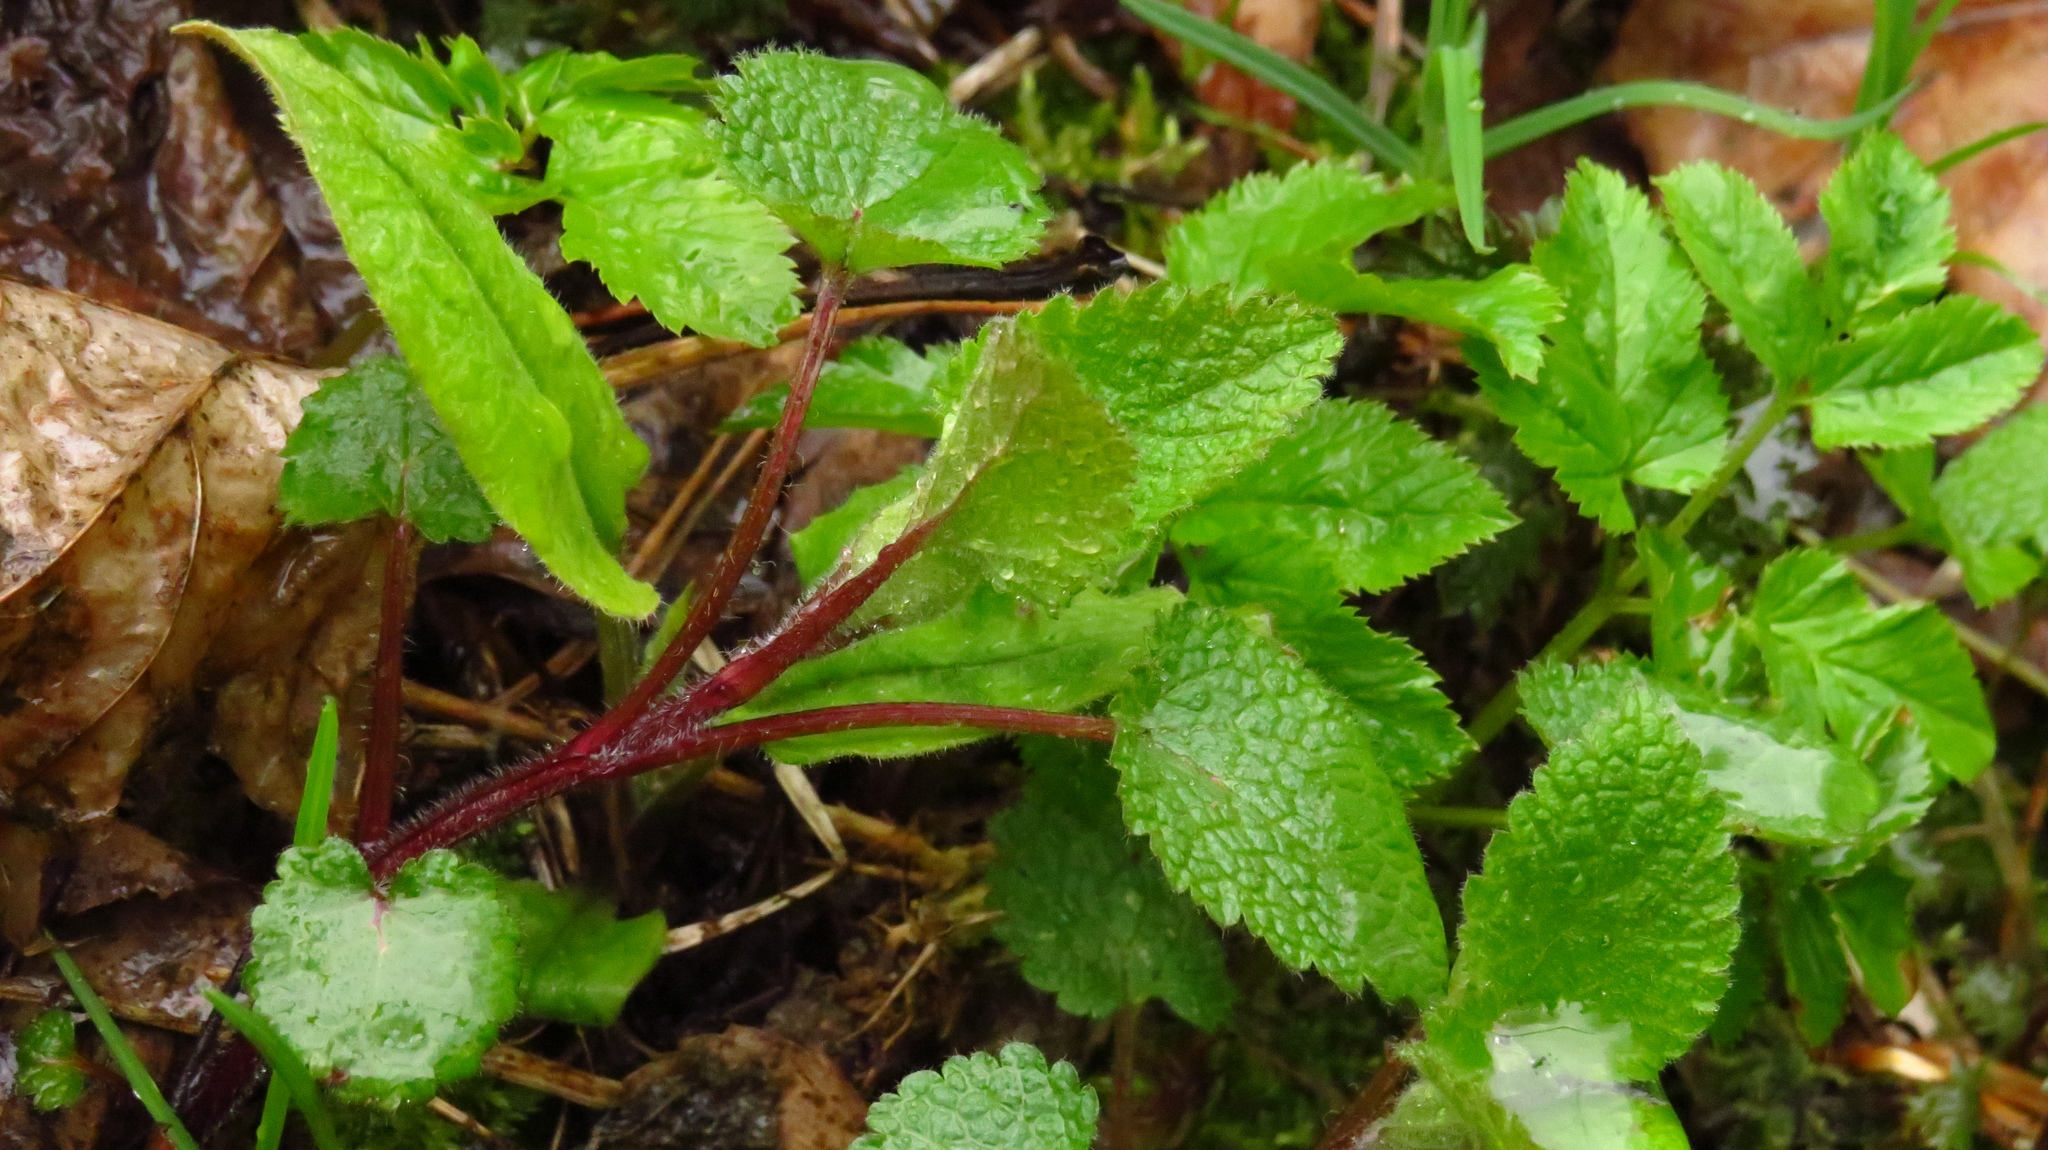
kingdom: Plantae
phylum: Tracheophyta
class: Magnoliopsida
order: Lamiales
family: Lamiaceae
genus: Lamium
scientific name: Lamium maculatum
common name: Spotted dead-nettle
